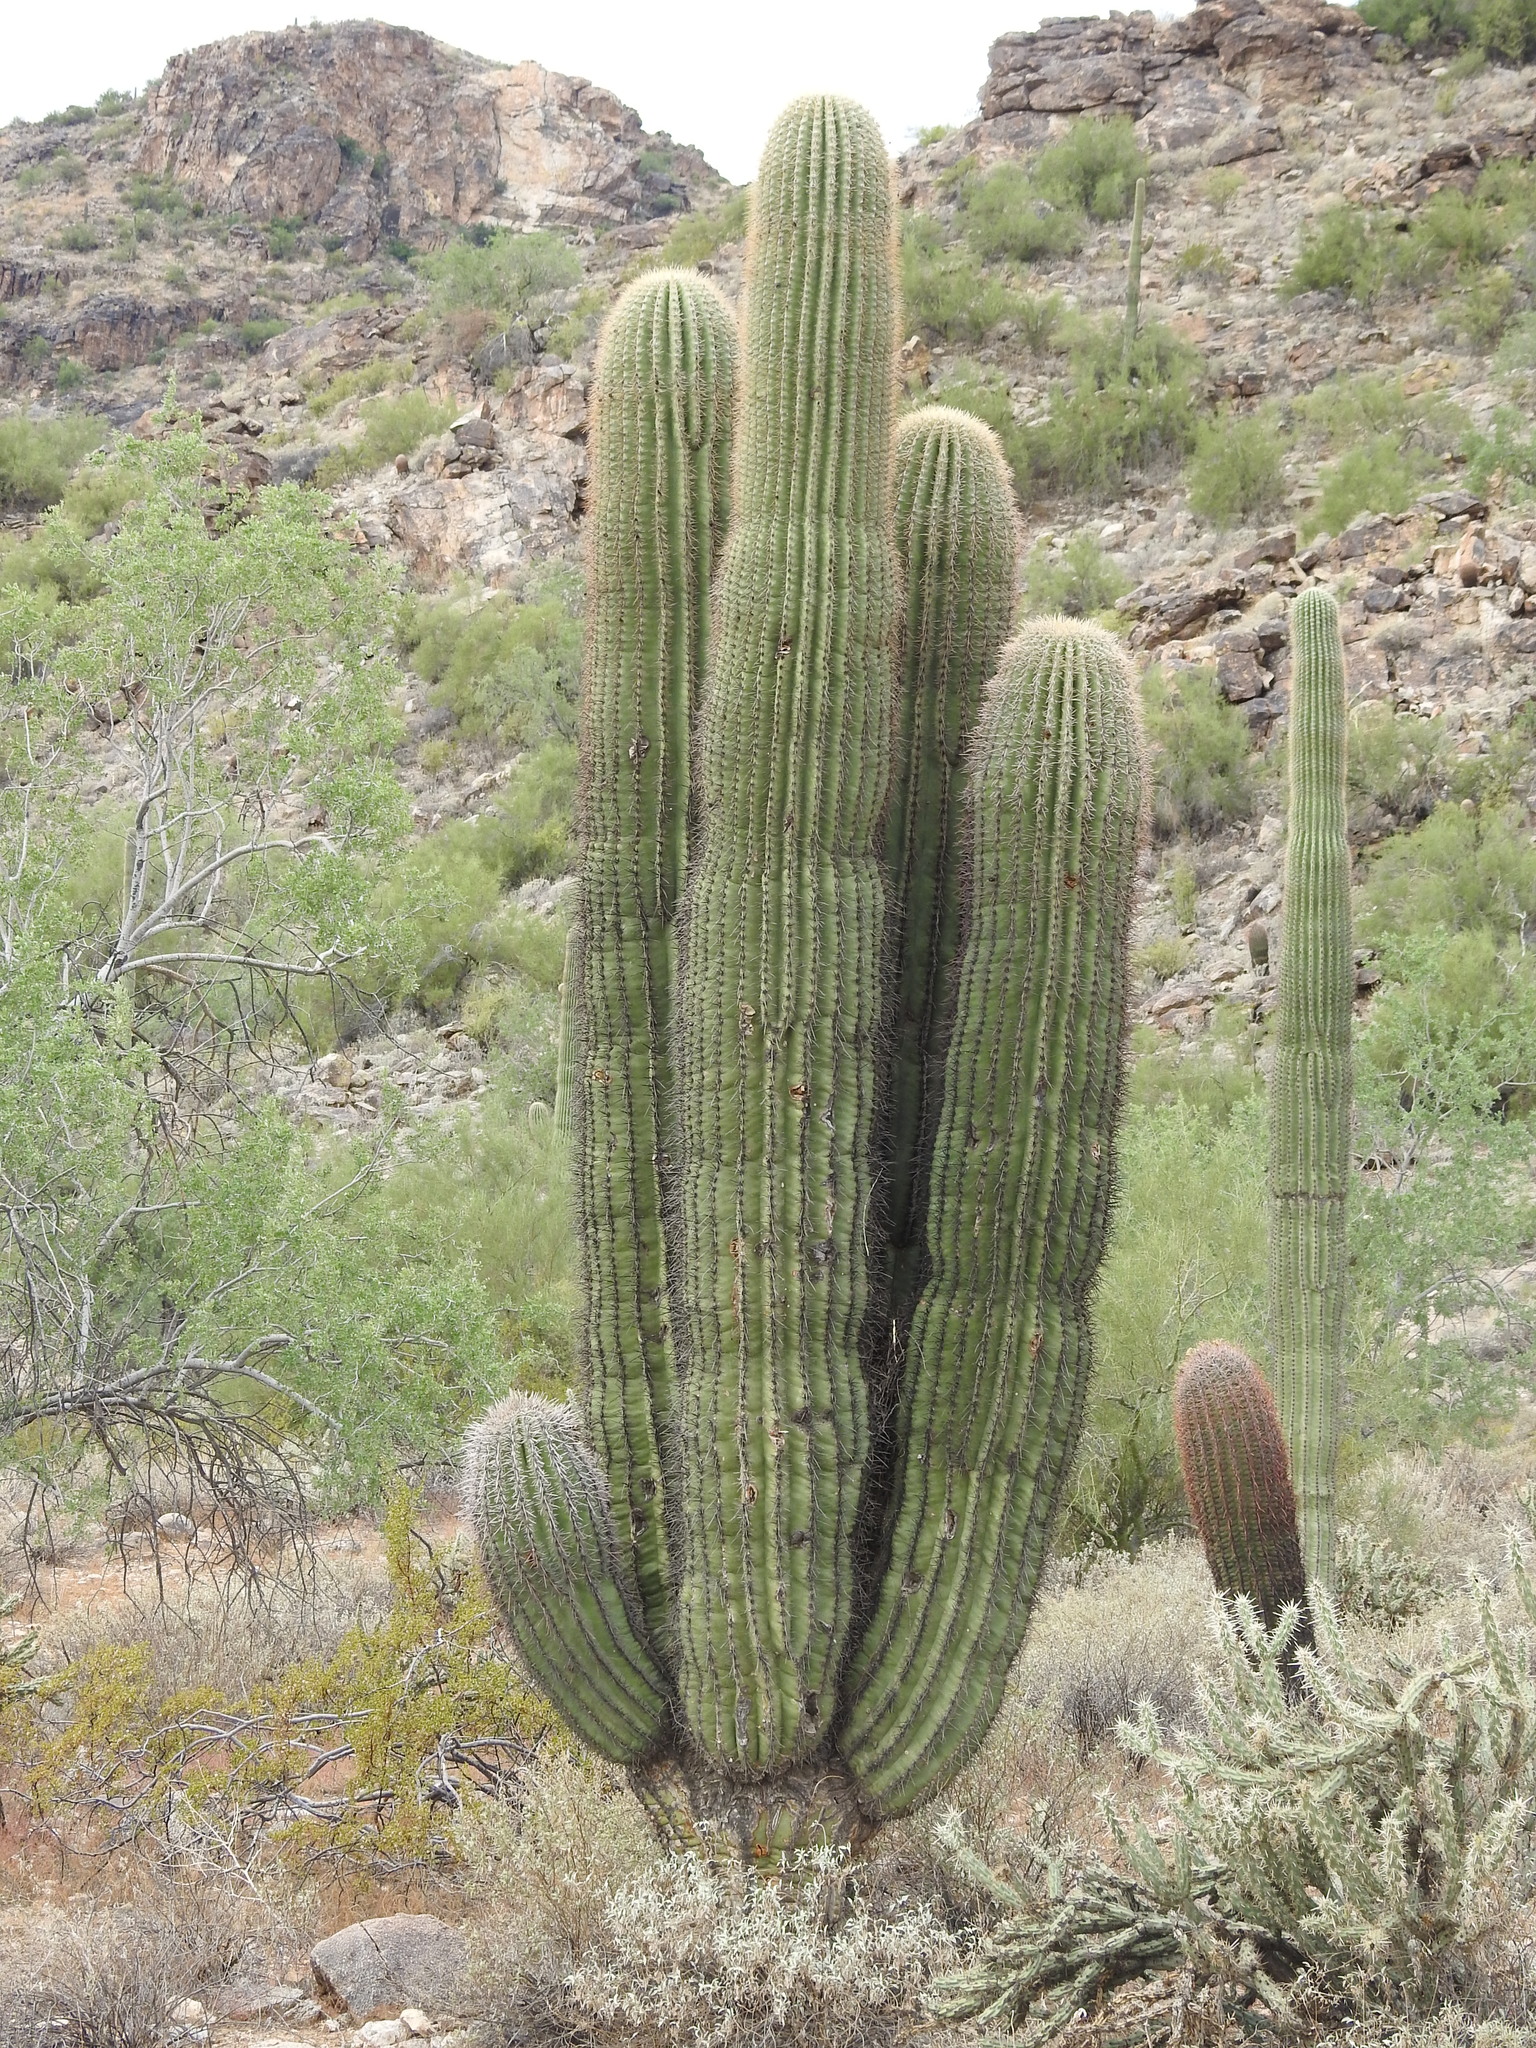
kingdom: Plantae
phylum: Tracheophyta
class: Magnoliopsida
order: Caryophyllales
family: Cactaceae
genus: Carnegiea
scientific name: Carnegiea gigantea
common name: Saguaro
